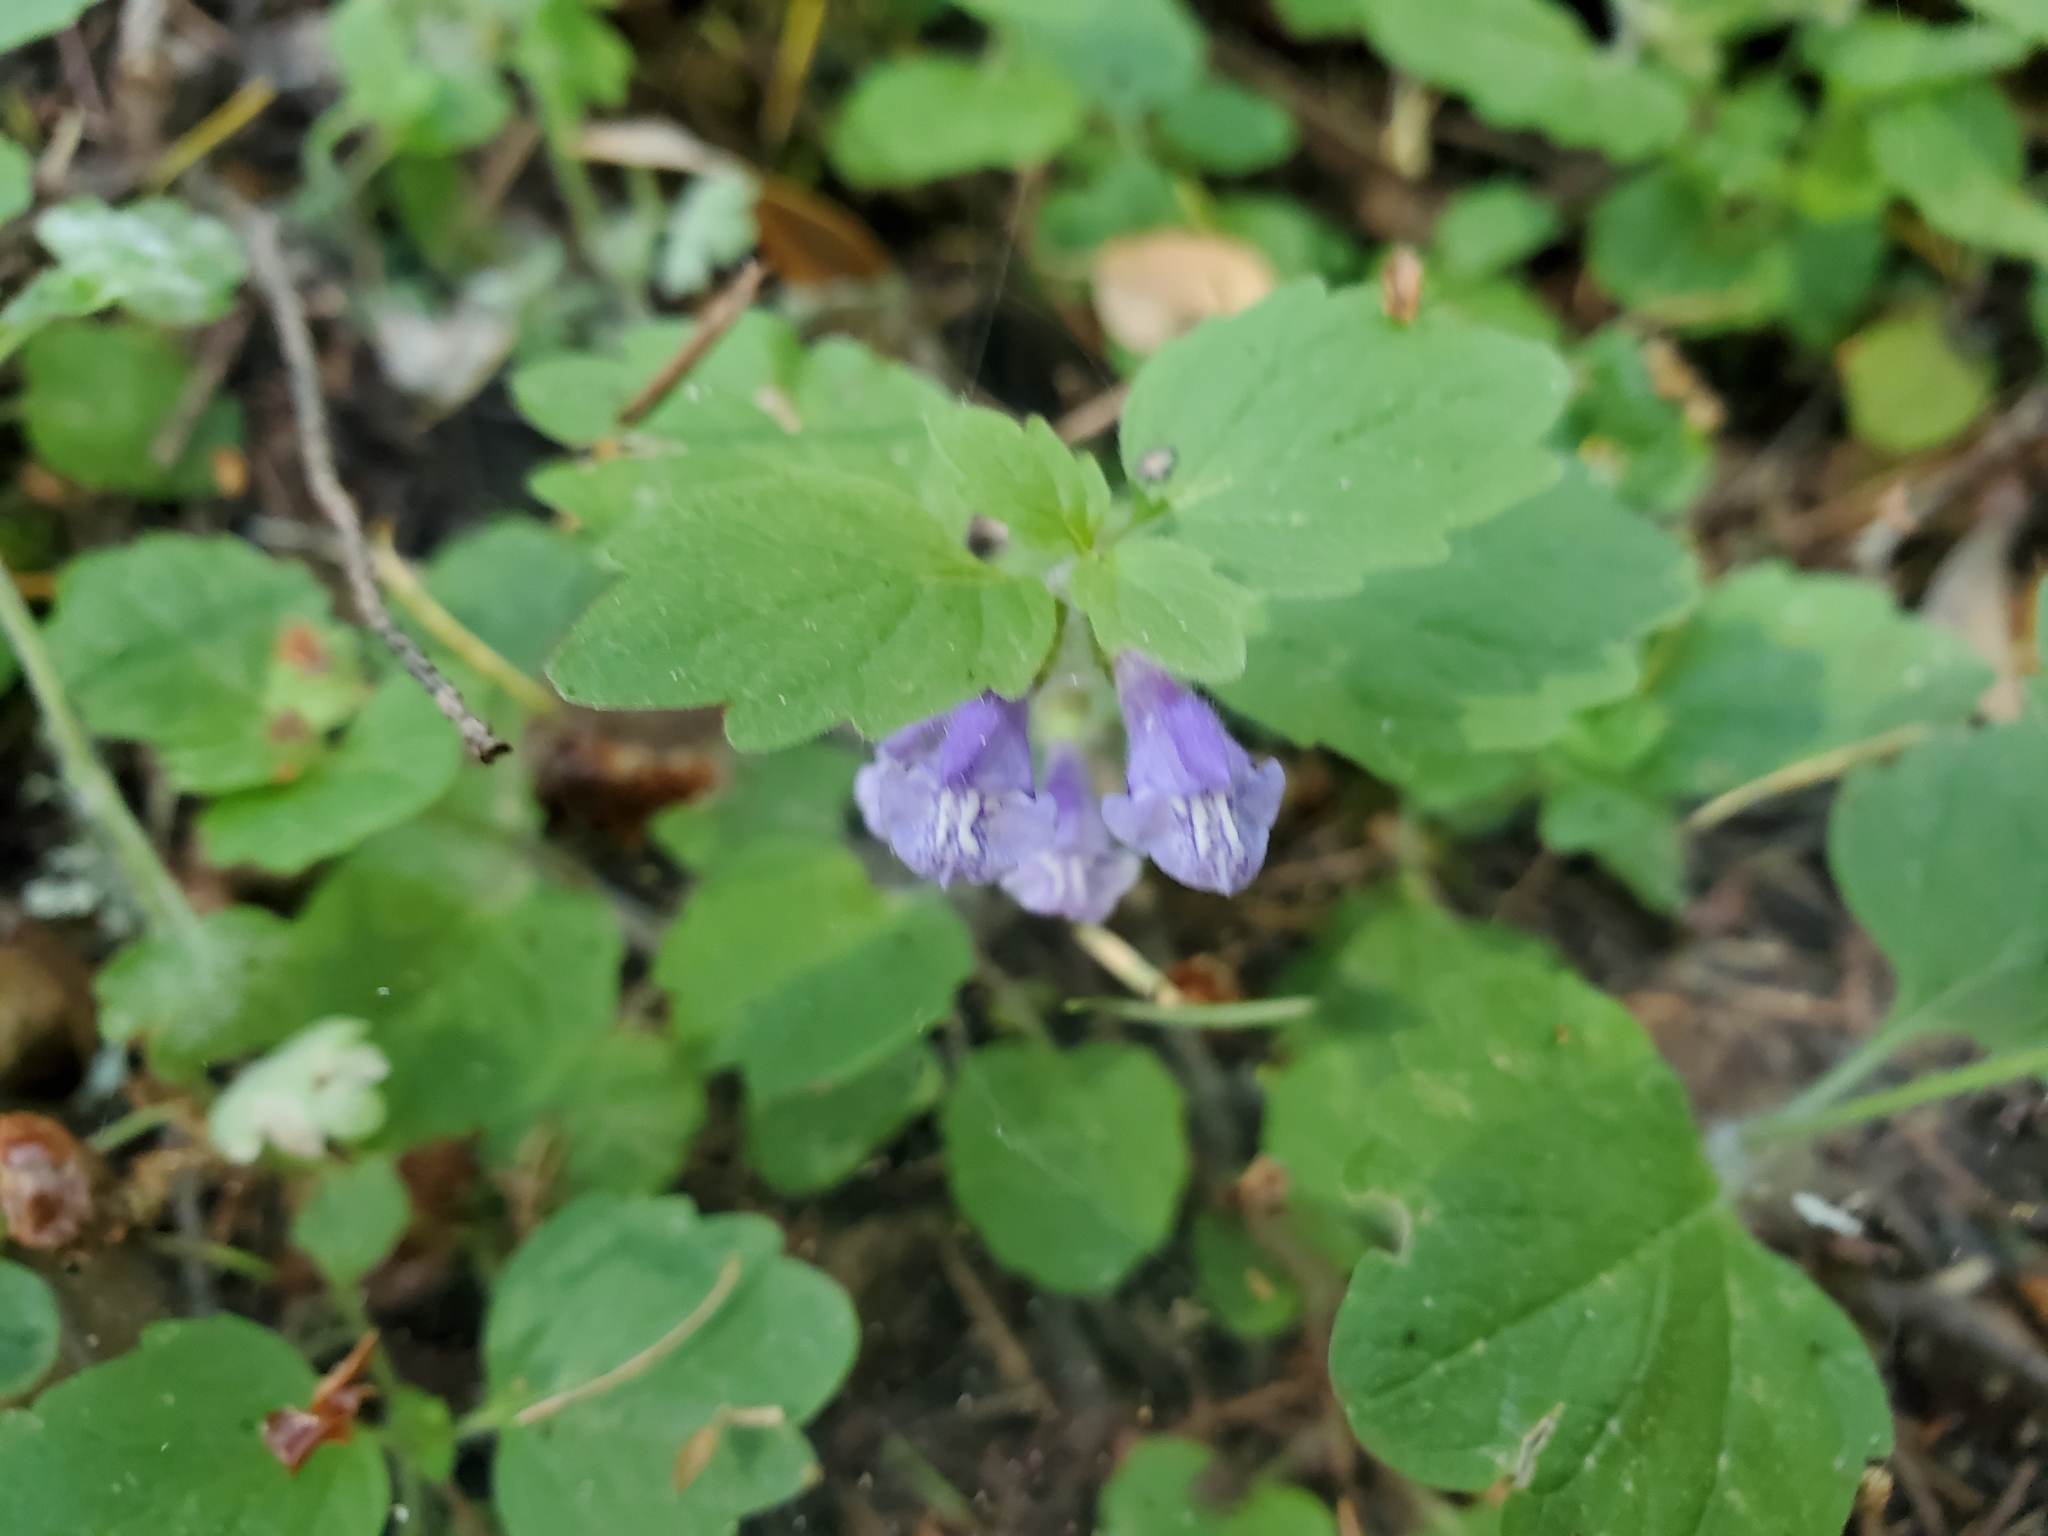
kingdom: Plantae
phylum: Tracheophyta
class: Magnoliopsida
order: Lamiales
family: Lamiaceae
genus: Scutellaria
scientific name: Scutellaria tuberosa
